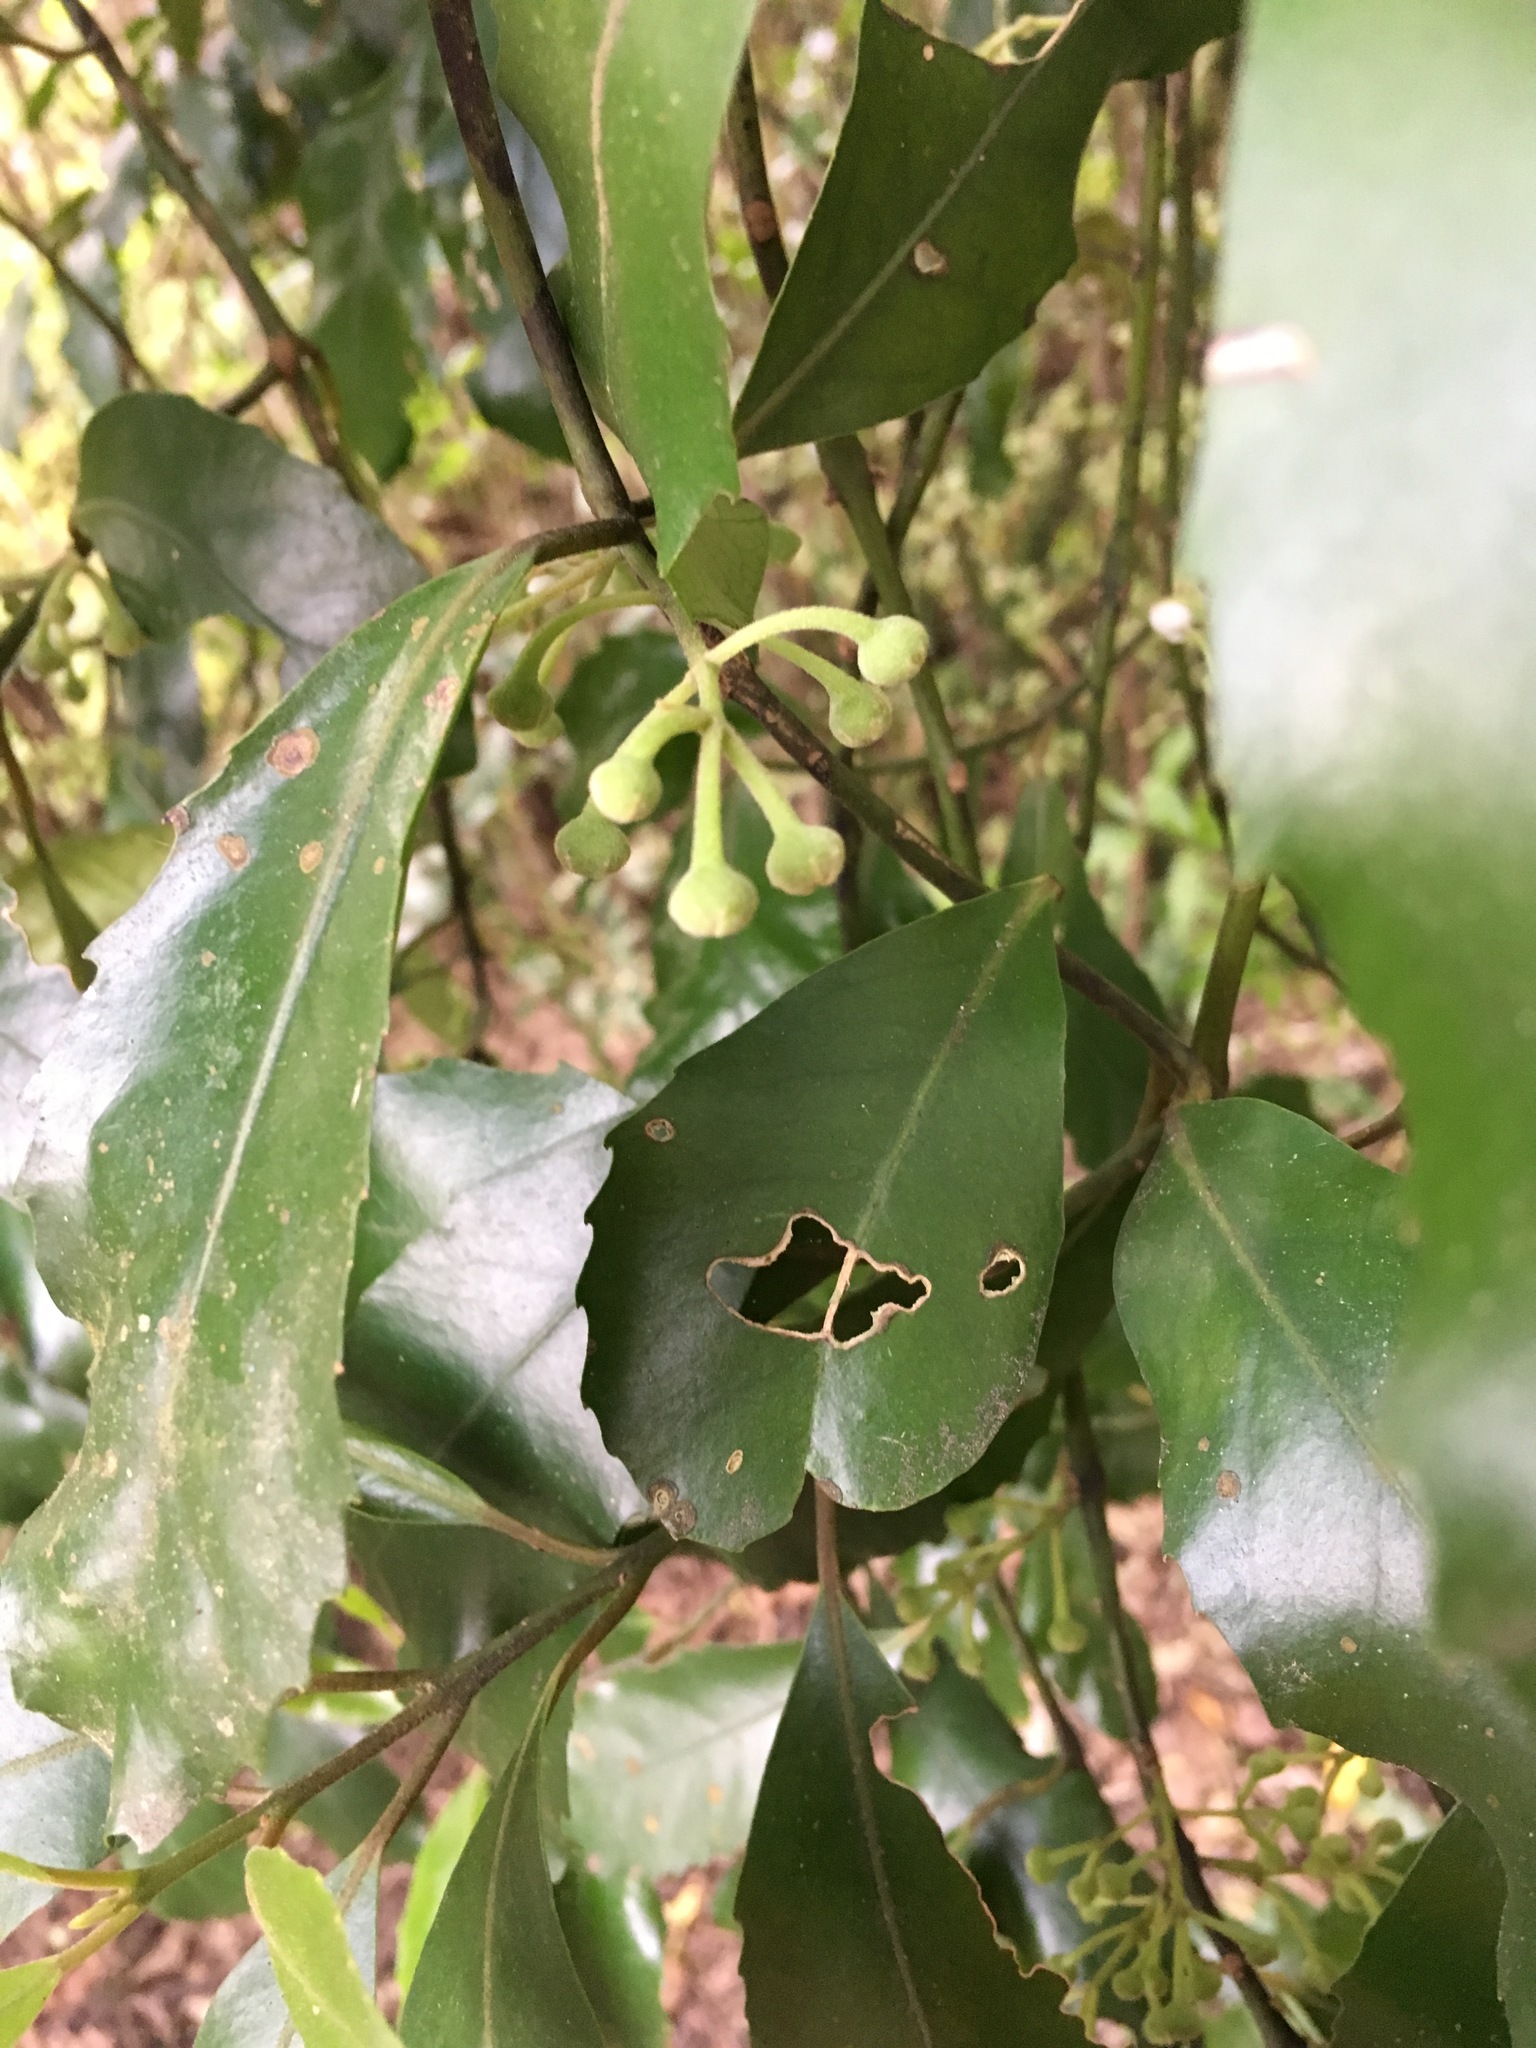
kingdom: Plantae
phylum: Tracheophyta
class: Magnoliopsida
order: Laurales
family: Monimiaceae
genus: Hedycarya
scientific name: Hedycarya arborea
